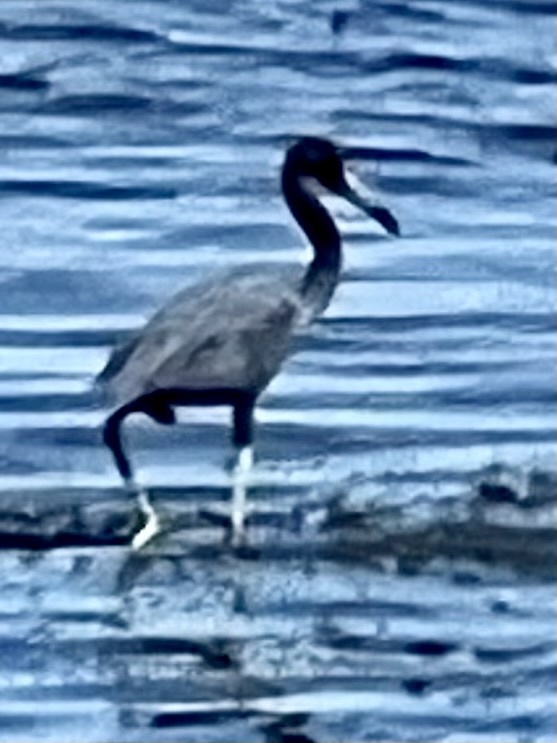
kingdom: Animalia
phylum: Chordata
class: Aves
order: Pelecaniformes
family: Ardeidae
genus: Egretta
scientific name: Egretta caerulea
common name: Little blue heron
